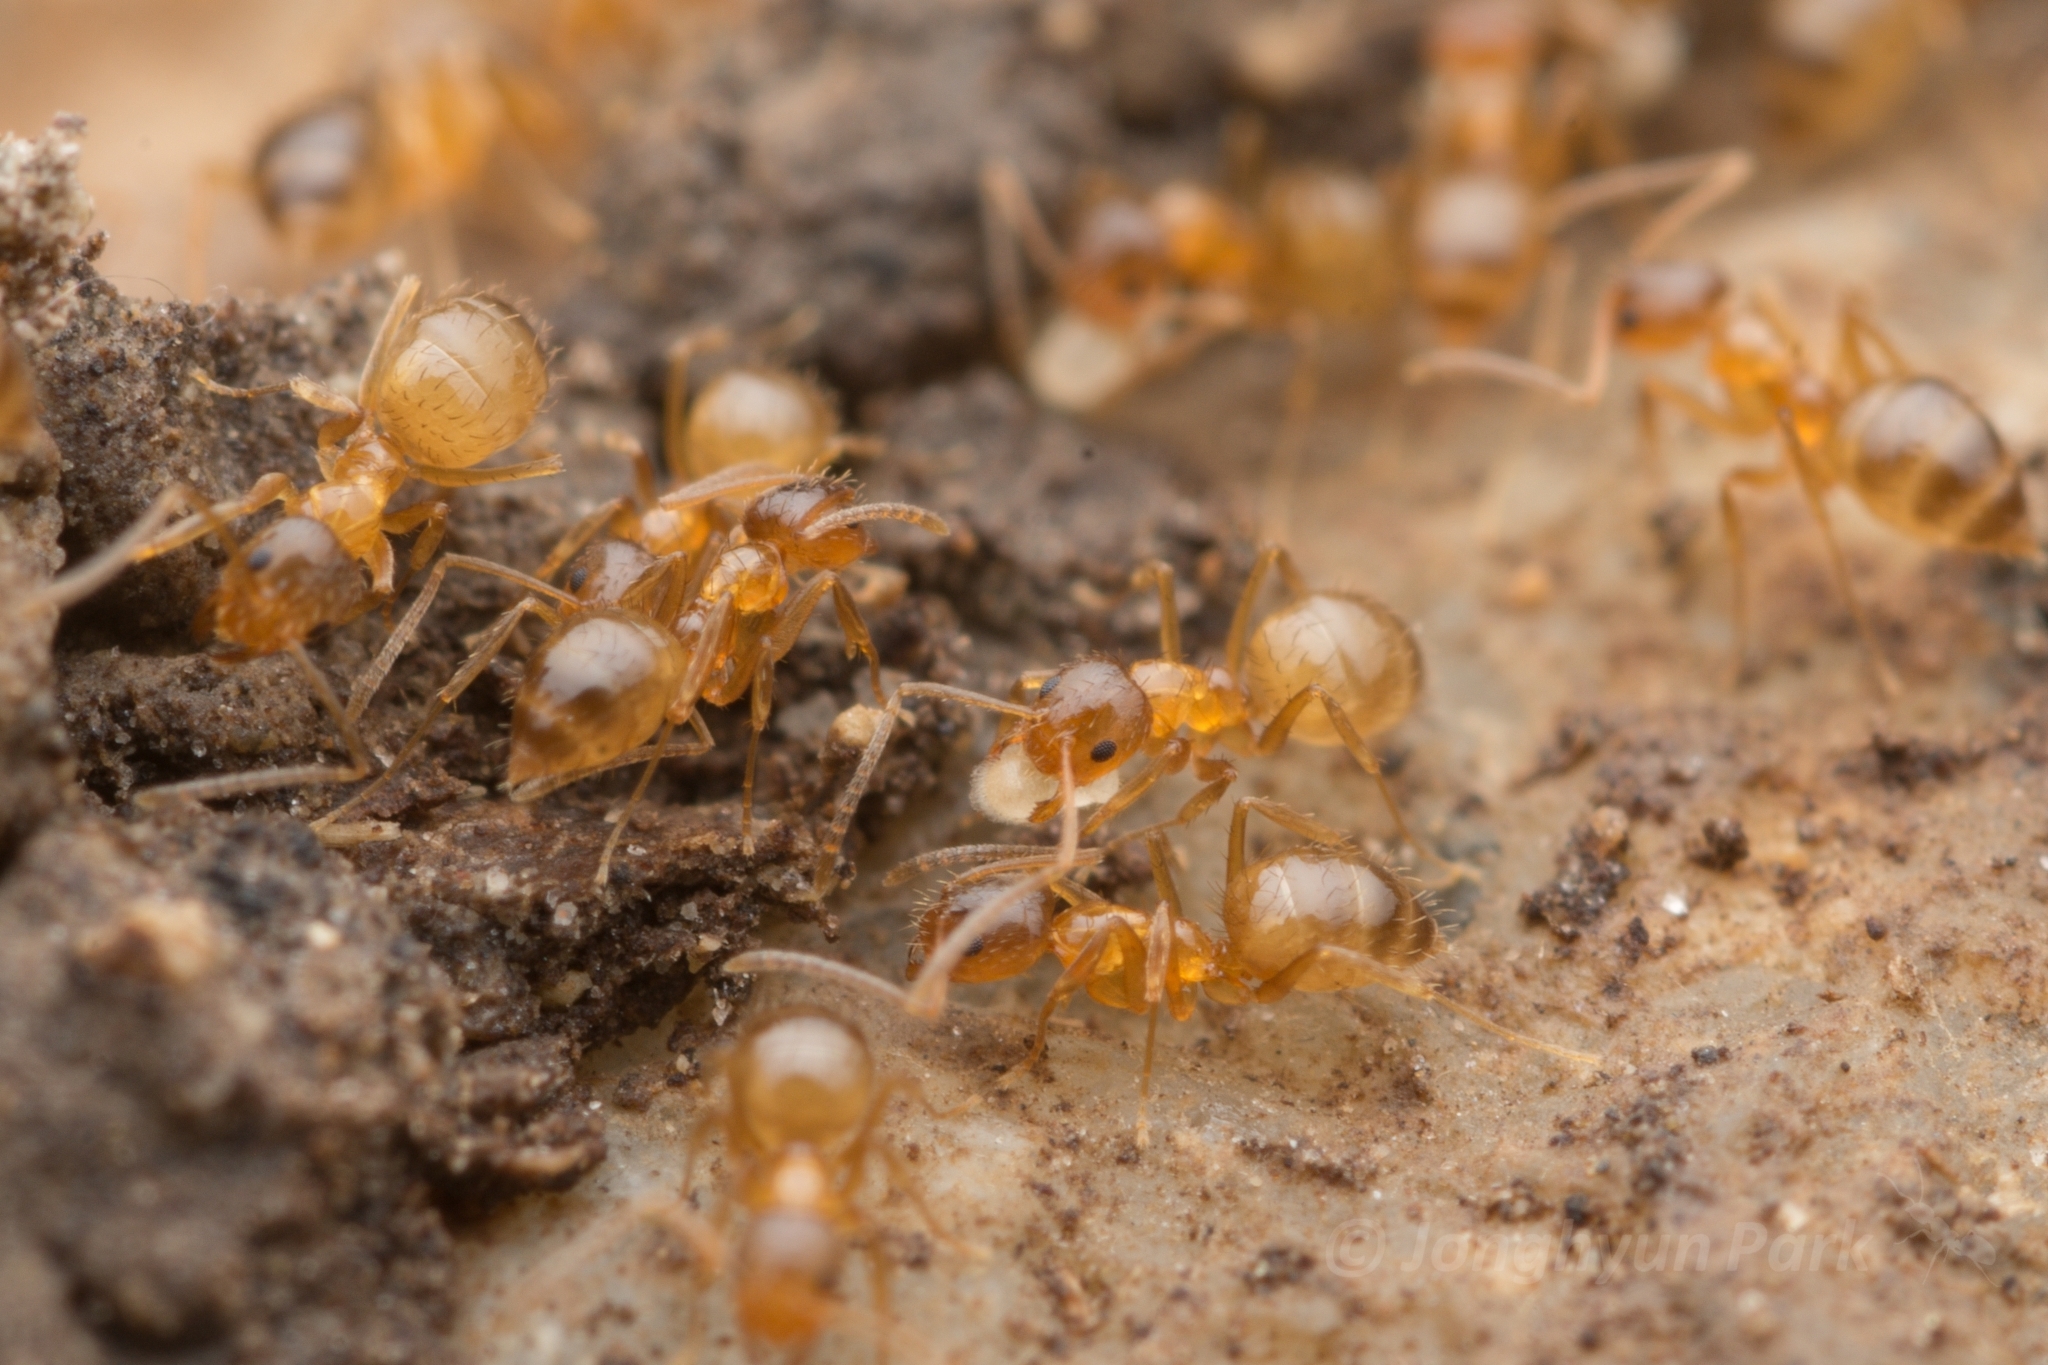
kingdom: Animalia
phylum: Arthropoda
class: Insecta
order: Hymenoptera
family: Formicidae
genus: Paratrechina
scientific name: Paratrechina flavipes
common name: Eastern asian formicine ant
